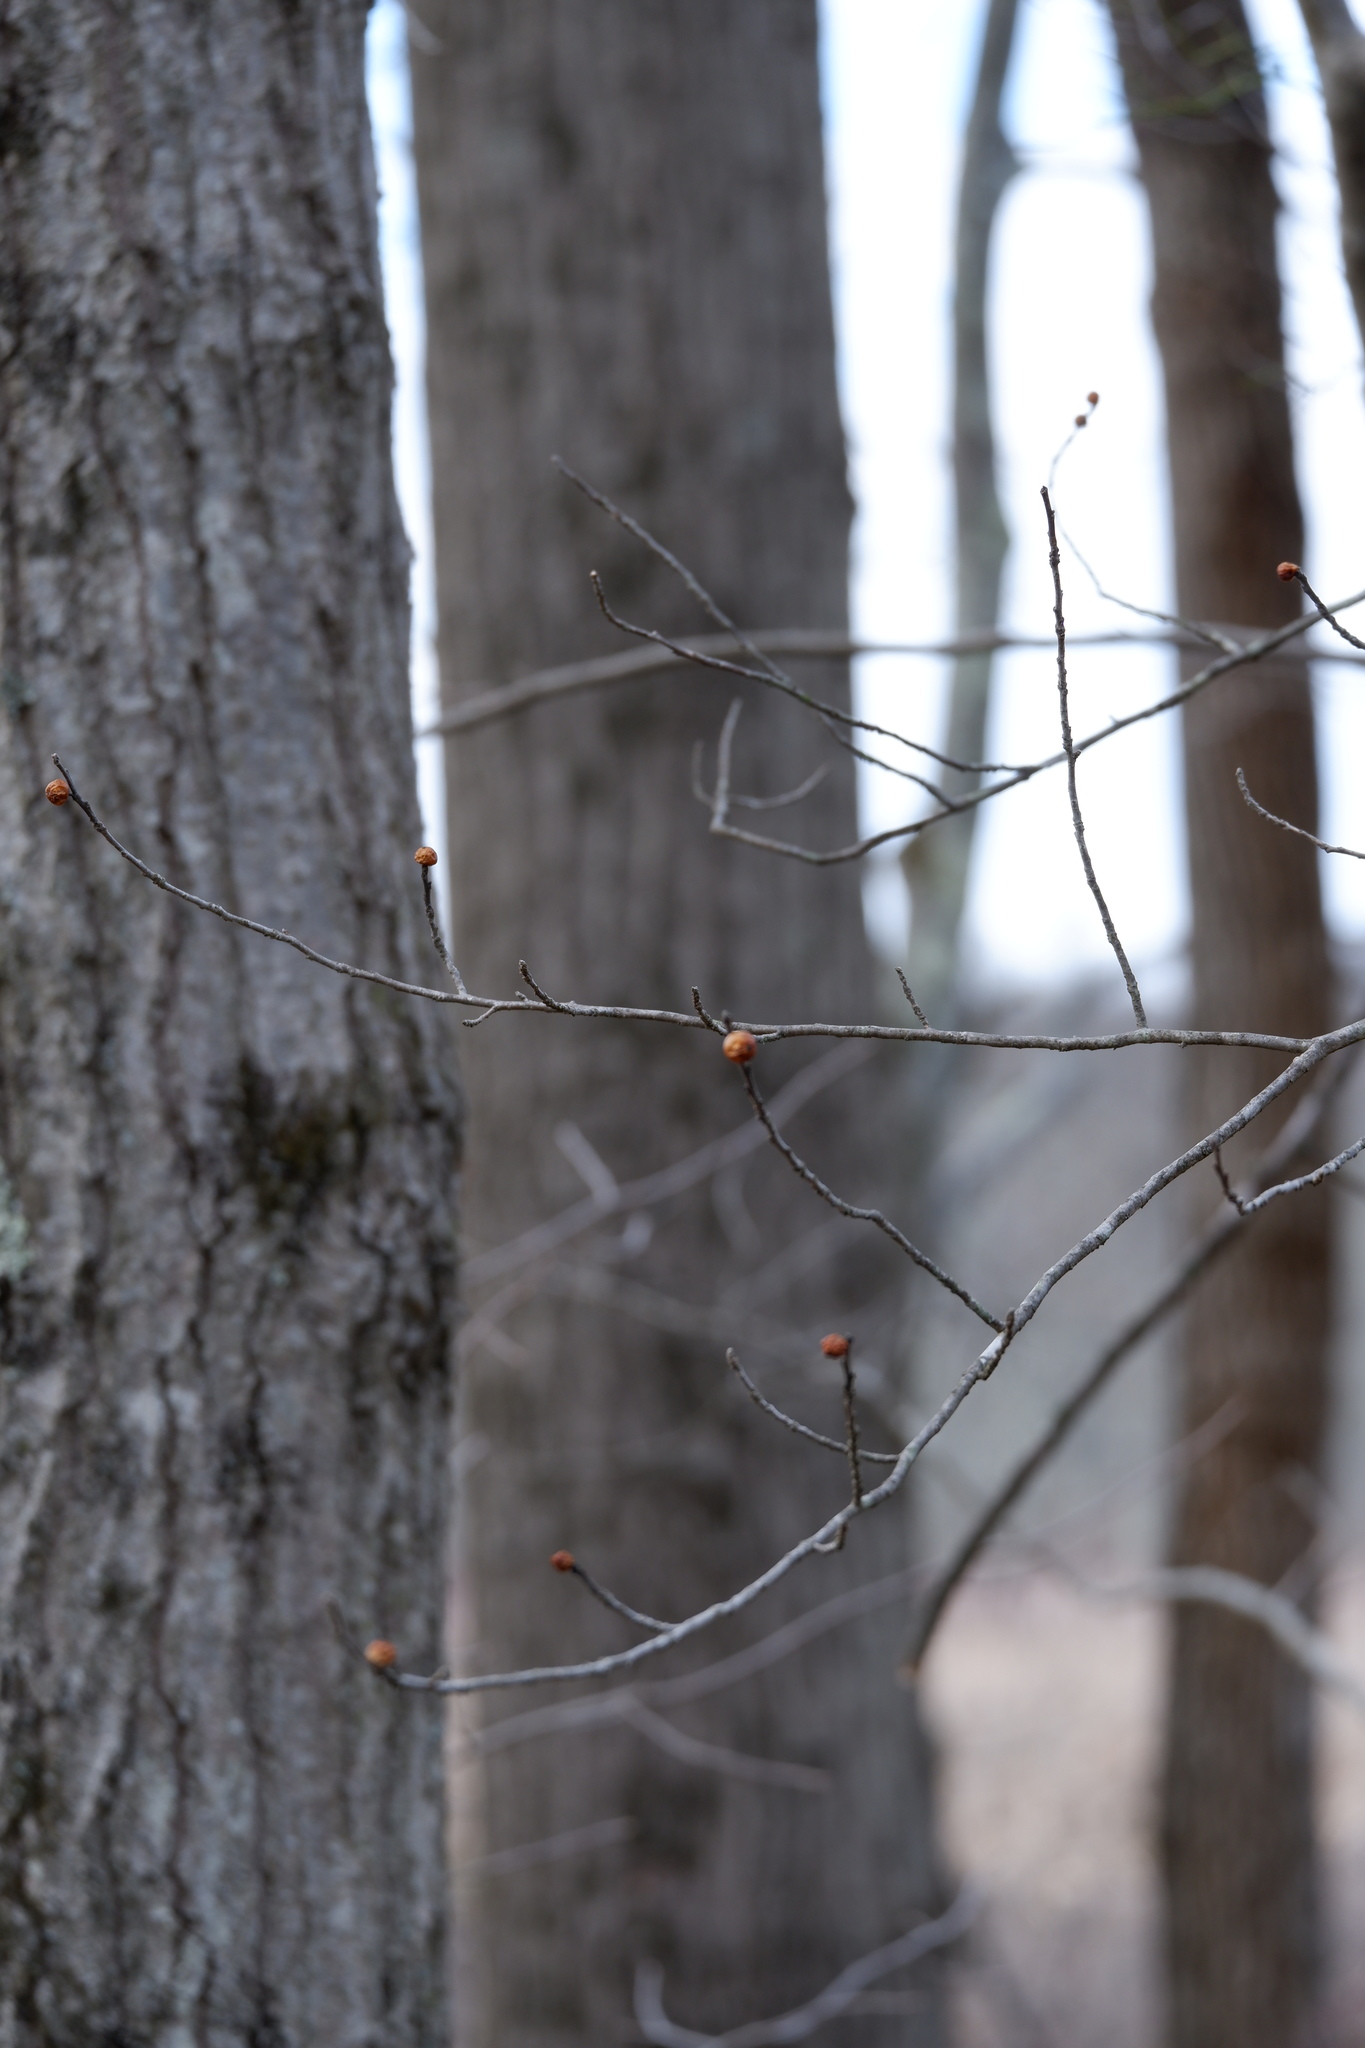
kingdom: Plantae
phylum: Tracheophyta
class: Magnoliopsida
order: Aquifoliales
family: Aquifoliaceae
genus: Ilex
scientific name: Ilex verticillata
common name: Virginia winterberry
